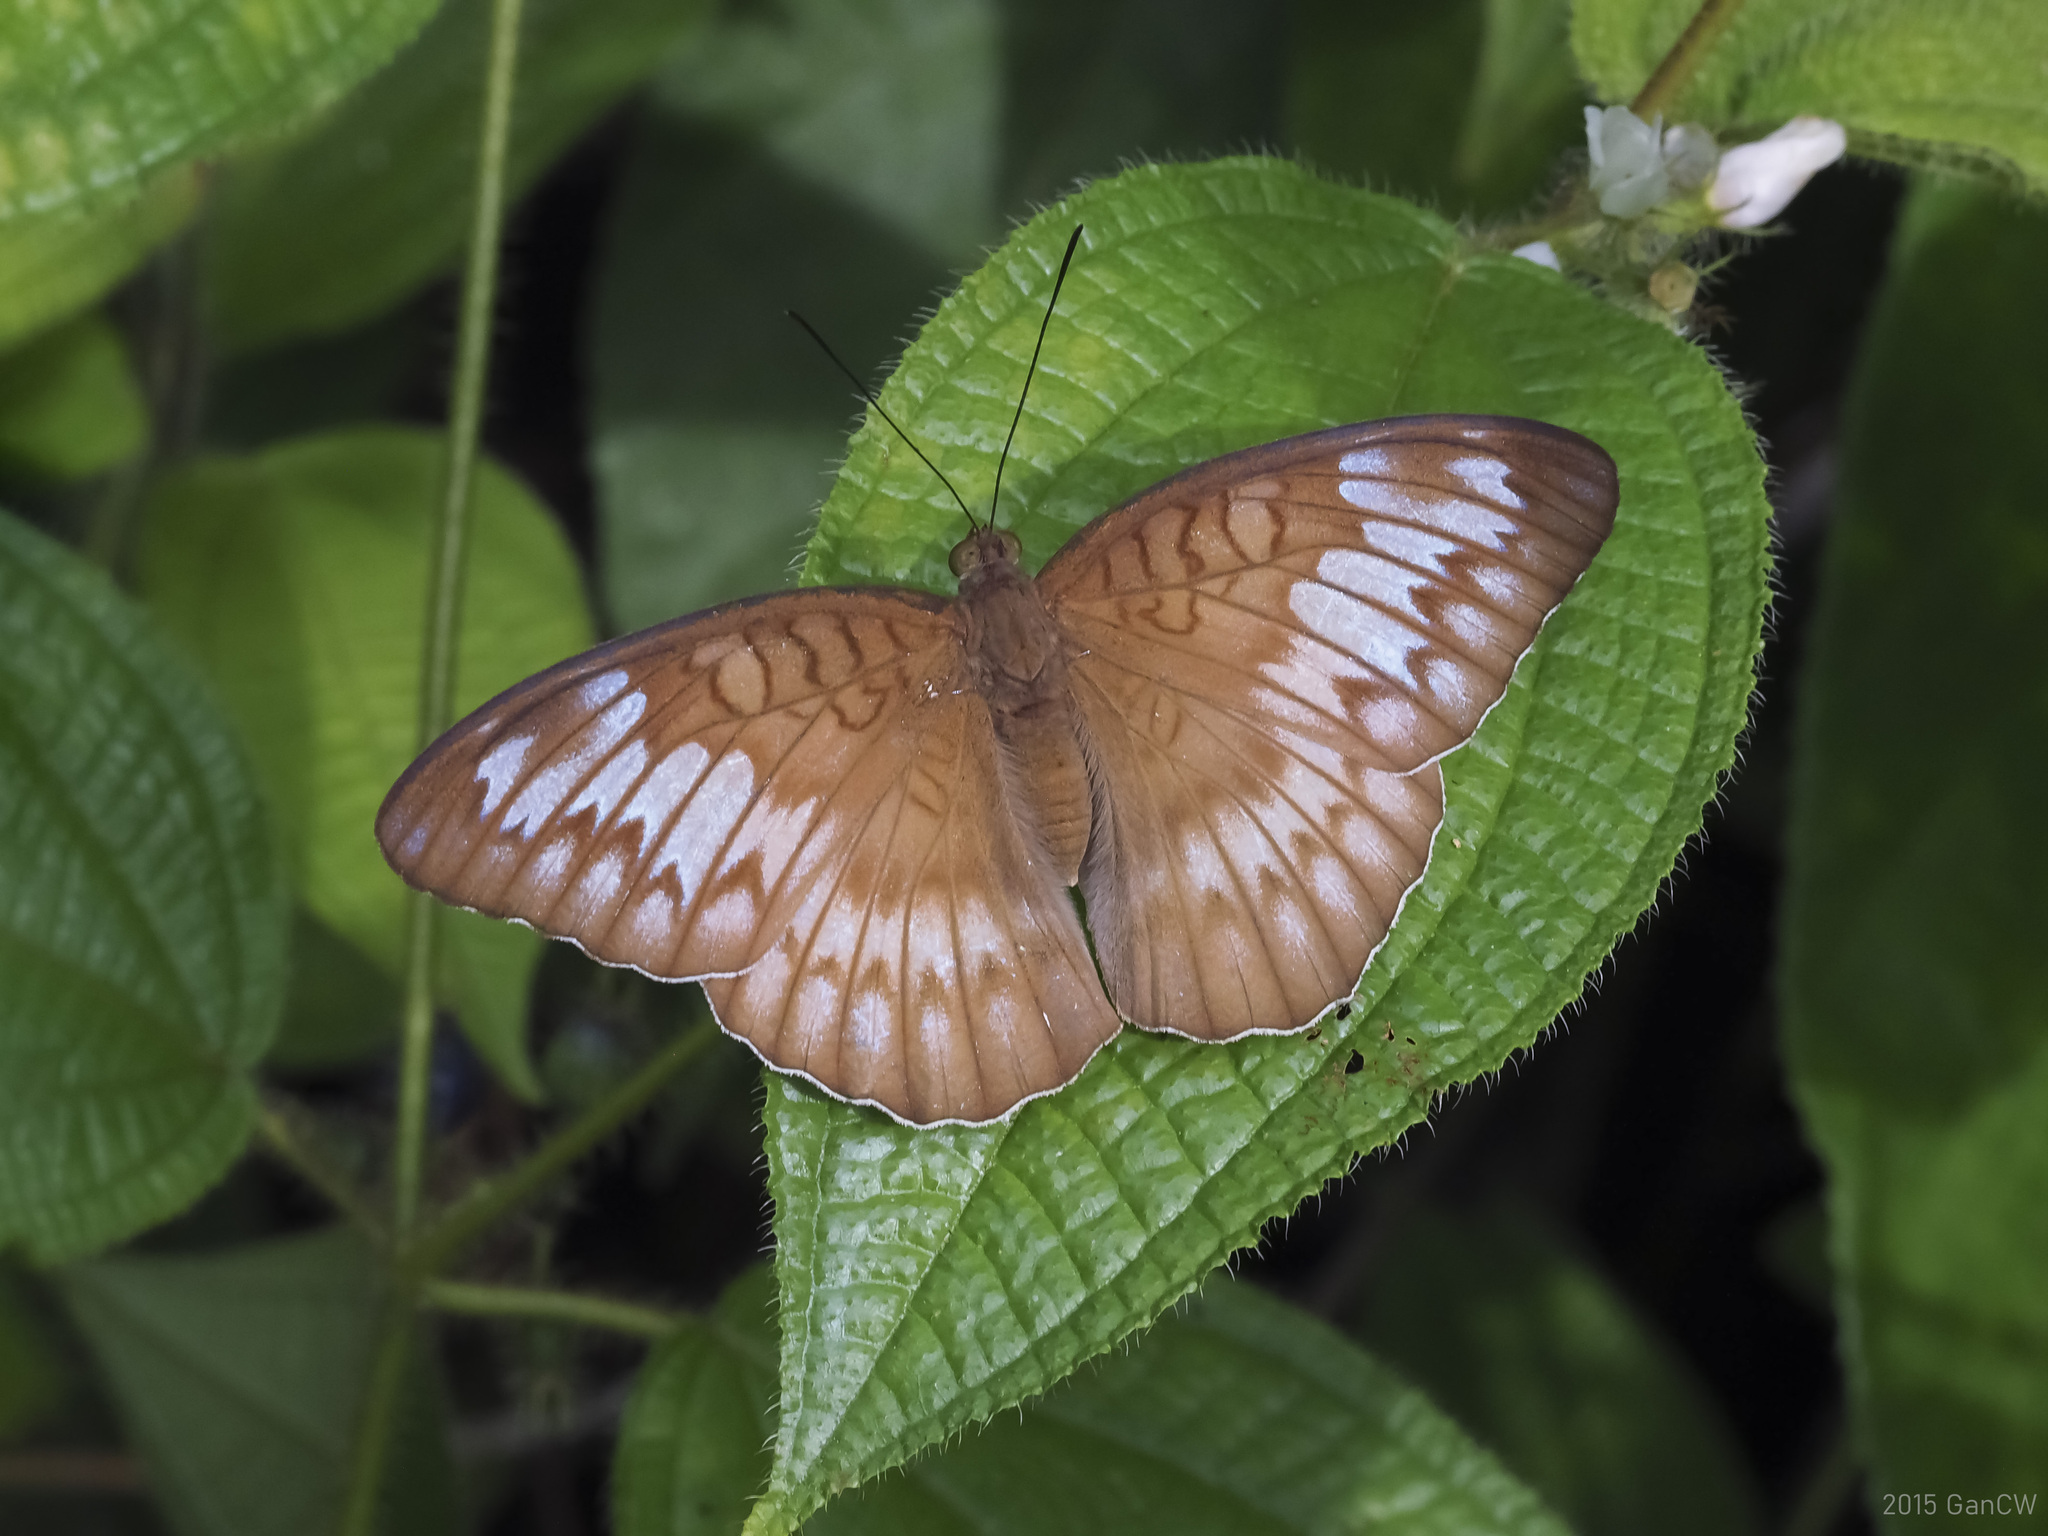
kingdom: Animalia
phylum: Arthropoda
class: Insecta
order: Lepidoptera
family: Nymphalidae
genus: Tanaecia
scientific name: Tanaecia iapis
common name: Horsfield's baron
